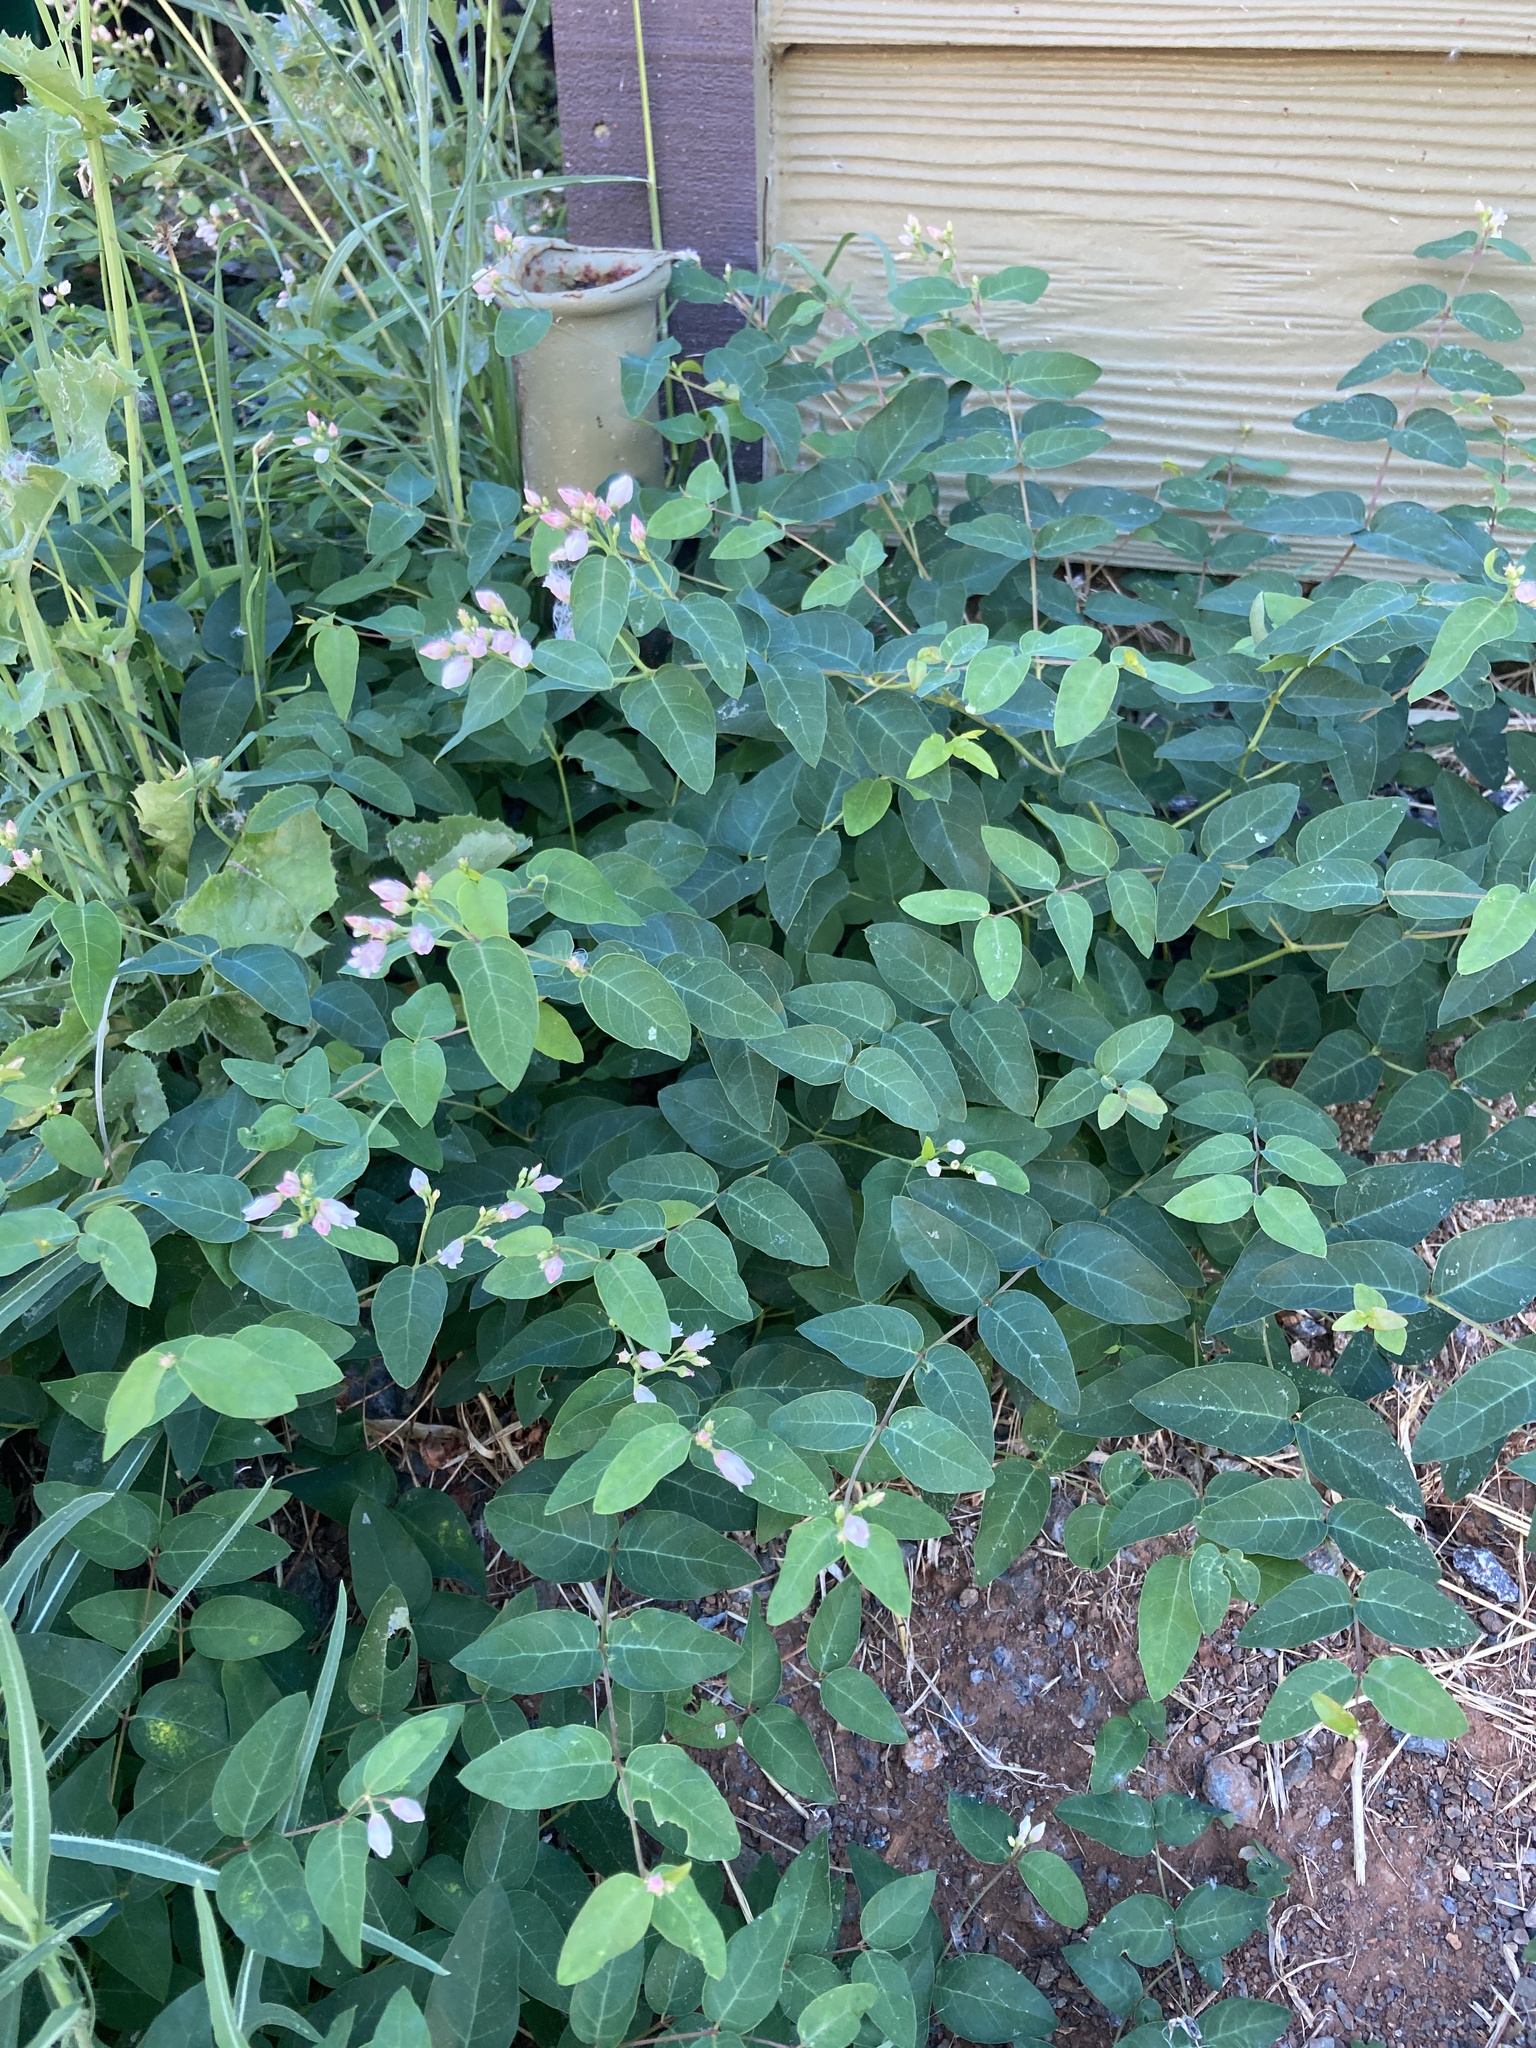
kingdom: Plantae
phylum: Tracheophyta
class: Magnoliopsida
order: Gentianales
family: Apocynaceae
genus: Apocynum
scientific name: Apocynum androsaemifolium
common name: Spreading dogbane
